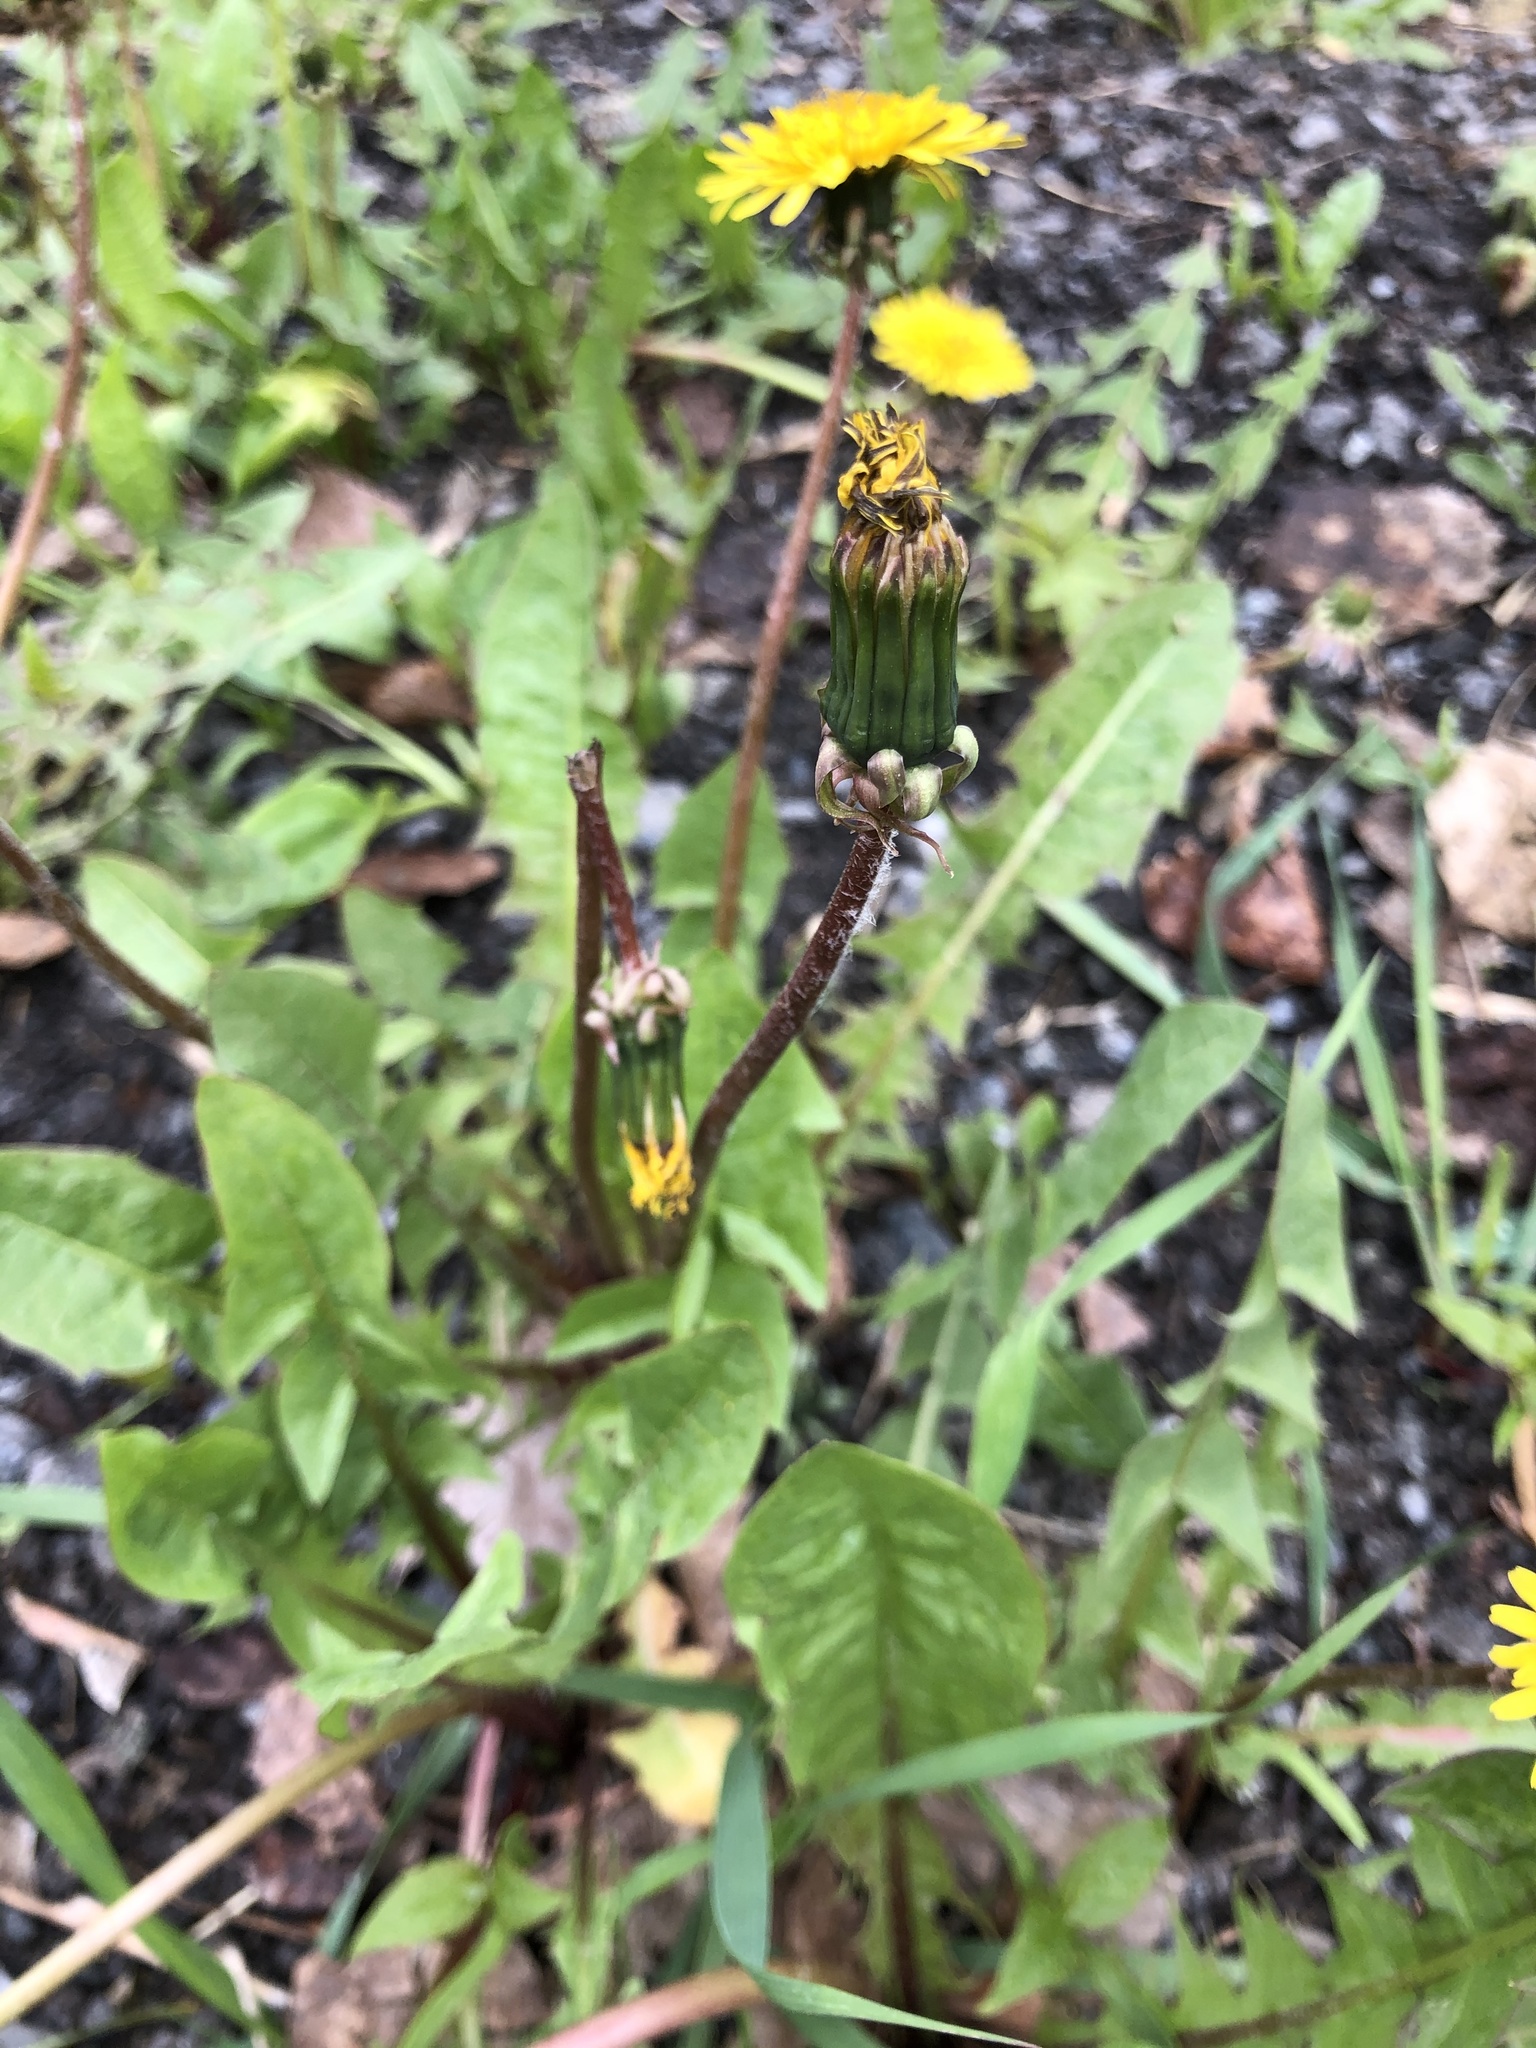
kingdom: Plantae
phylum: Tracheophyta
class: Magnoliopsida
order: Asterales
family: Asteraceae
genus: Taraxacum
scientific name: Taraxacum officinale
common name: Common dandelion
